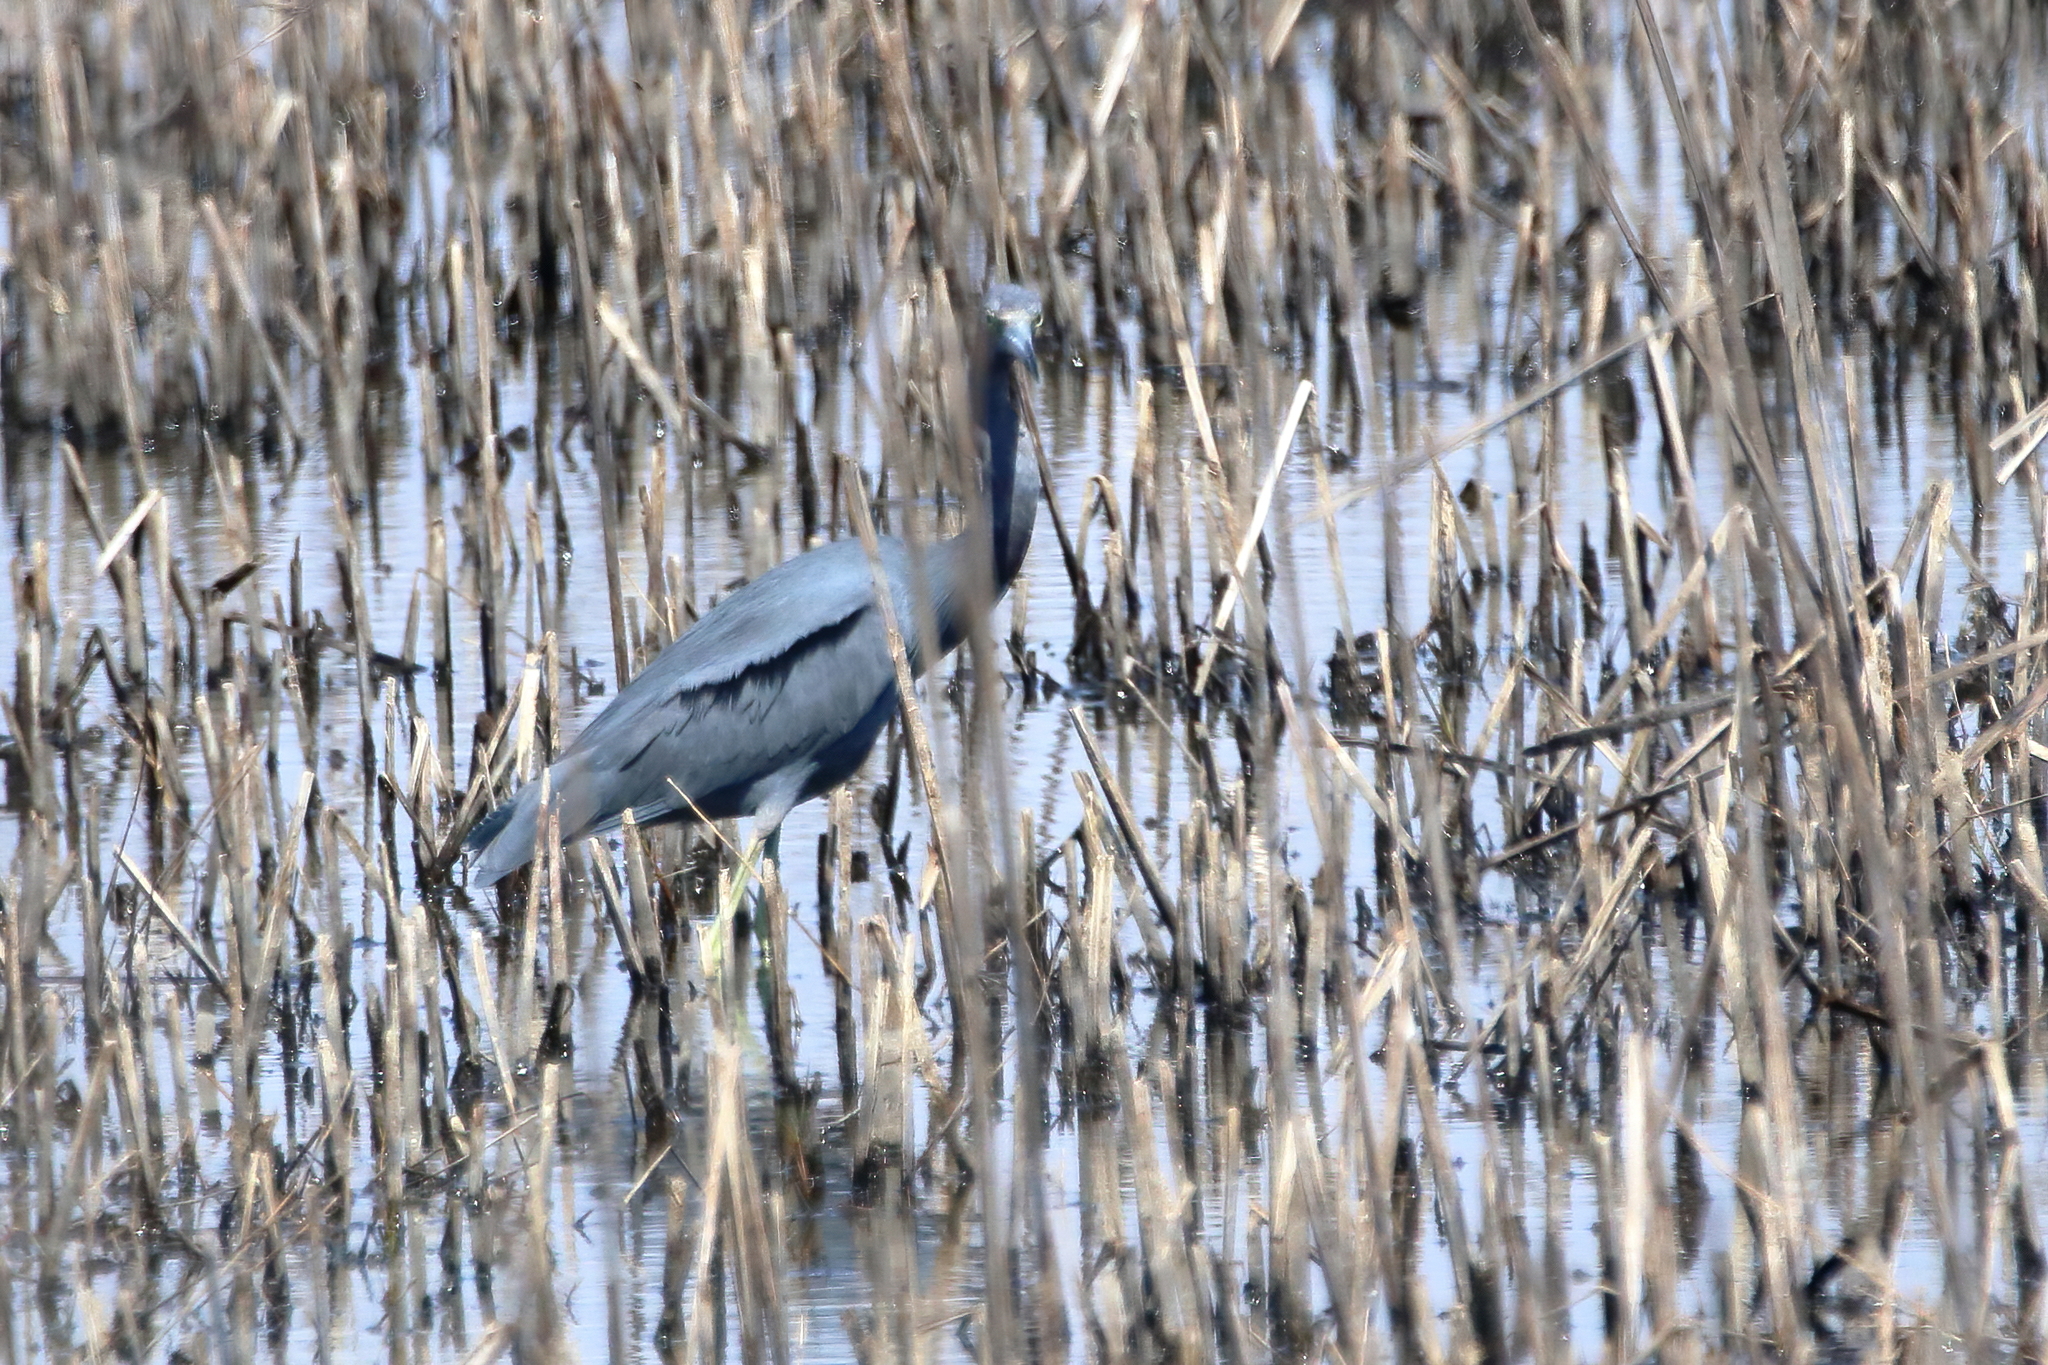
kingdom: Animalia
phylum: Chordata
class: Aves
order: Pelecaniformes
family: Ardeidae
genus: Egretta
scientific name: Egretta caerulea
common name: Little blue heron
